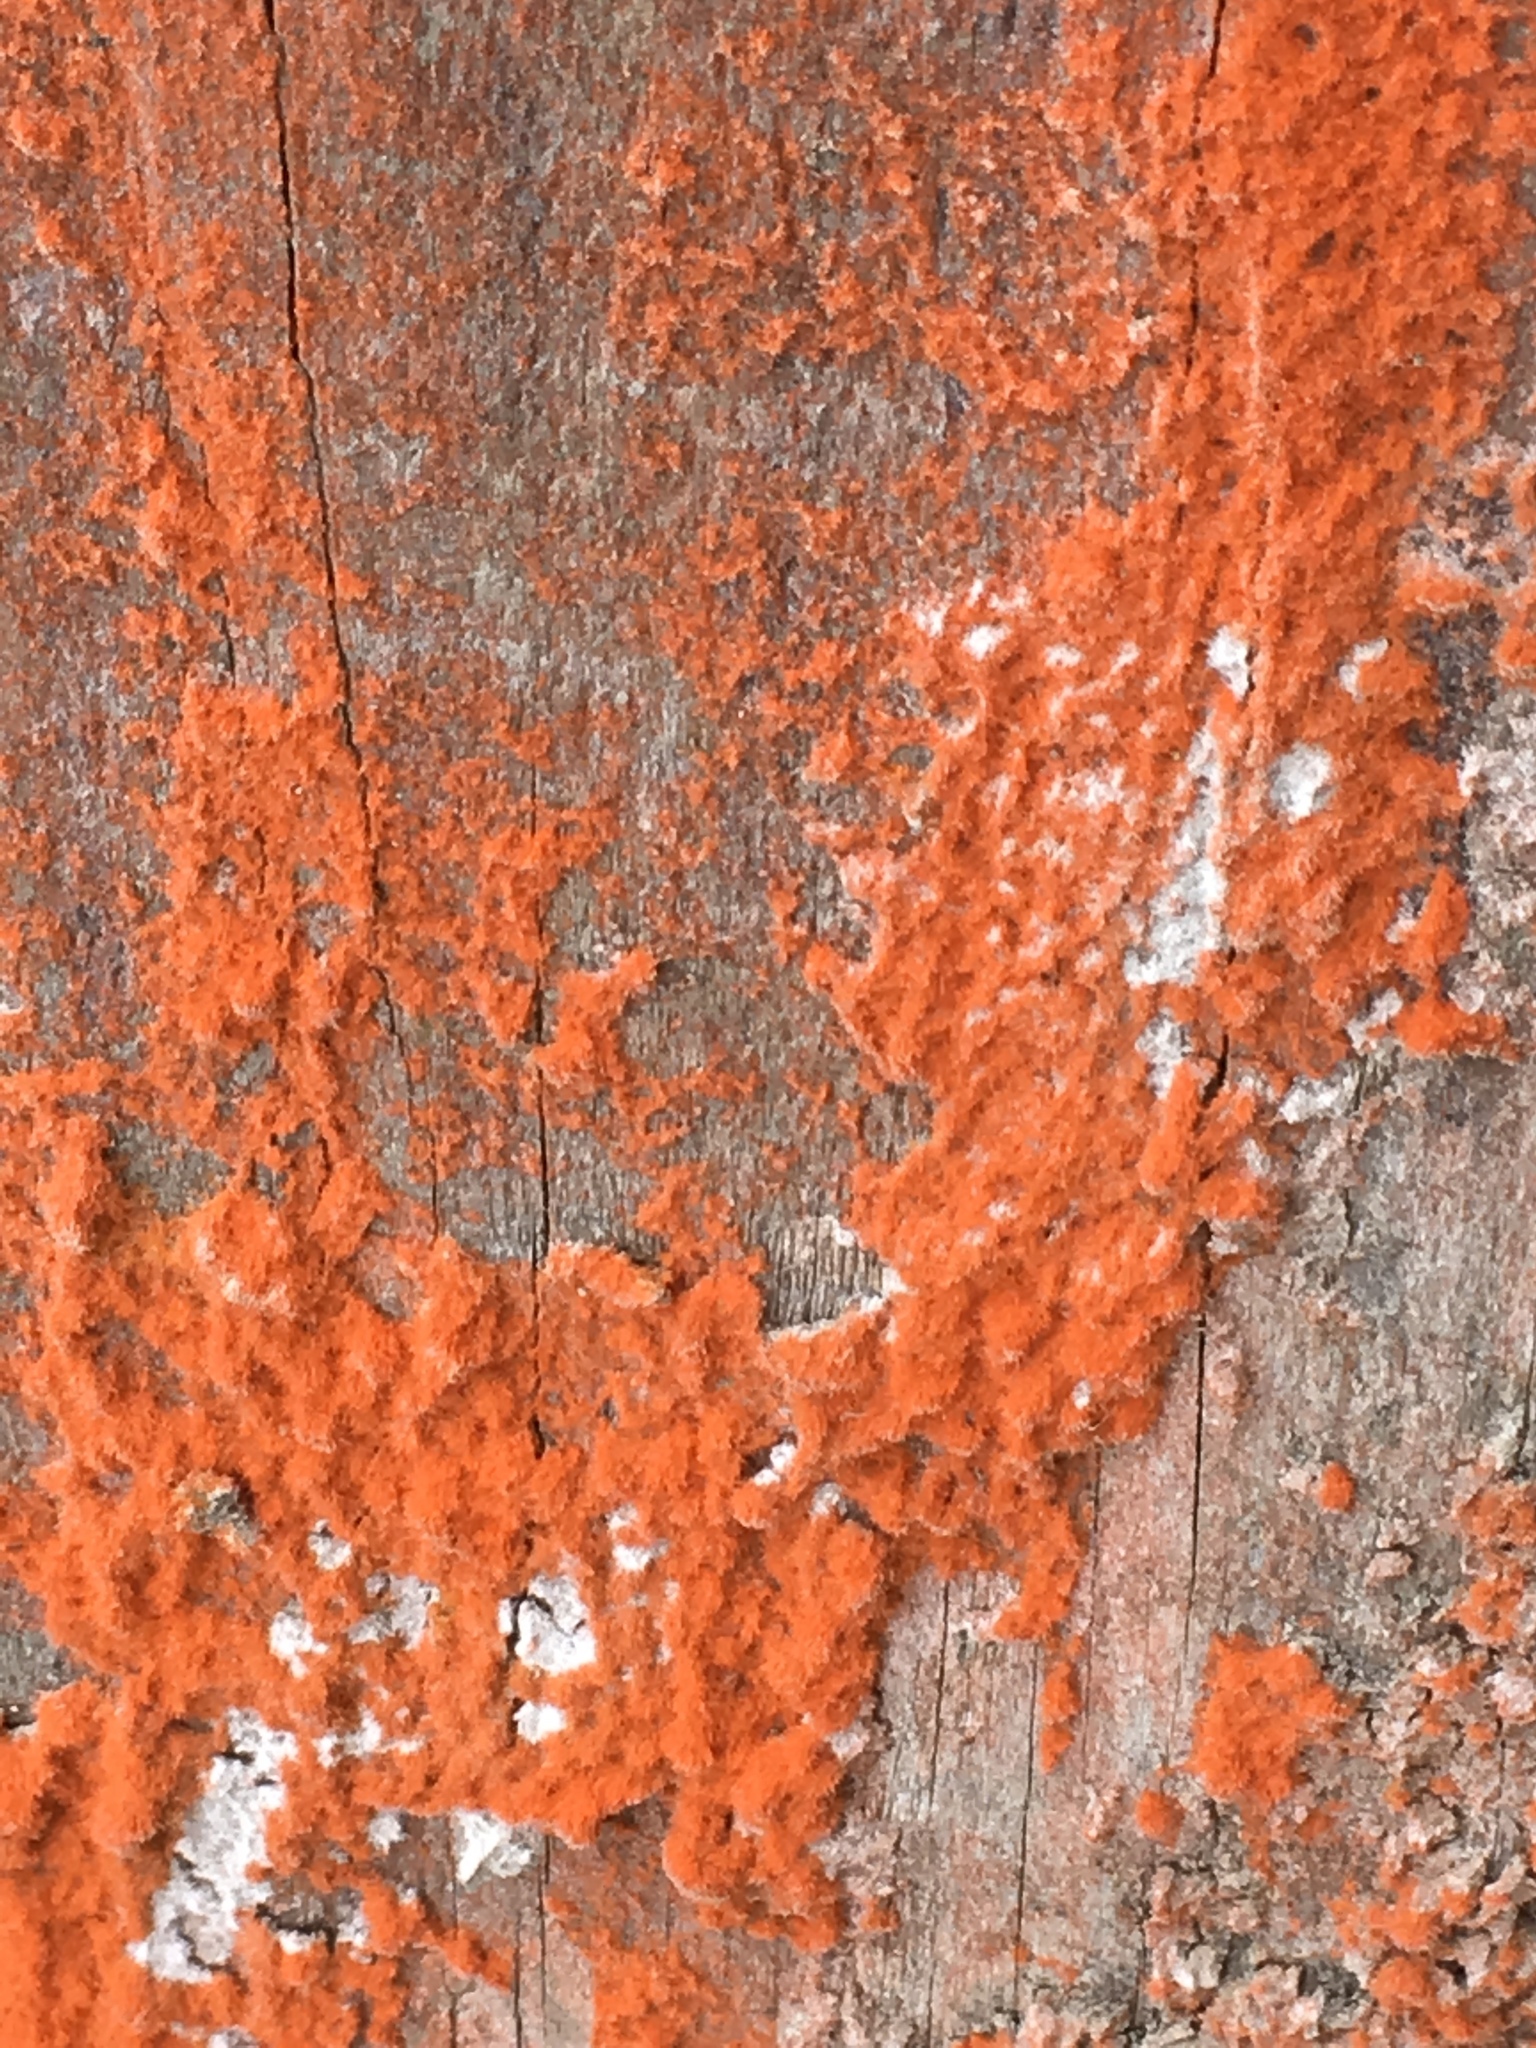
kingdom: Plantae
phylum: Chlorophyta
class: Ulvophyceae
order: Trentepohliales
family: Trentepohliaceae
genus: Trentepohlia
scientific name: Trentepohlia aurea
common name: Orange rock hair
